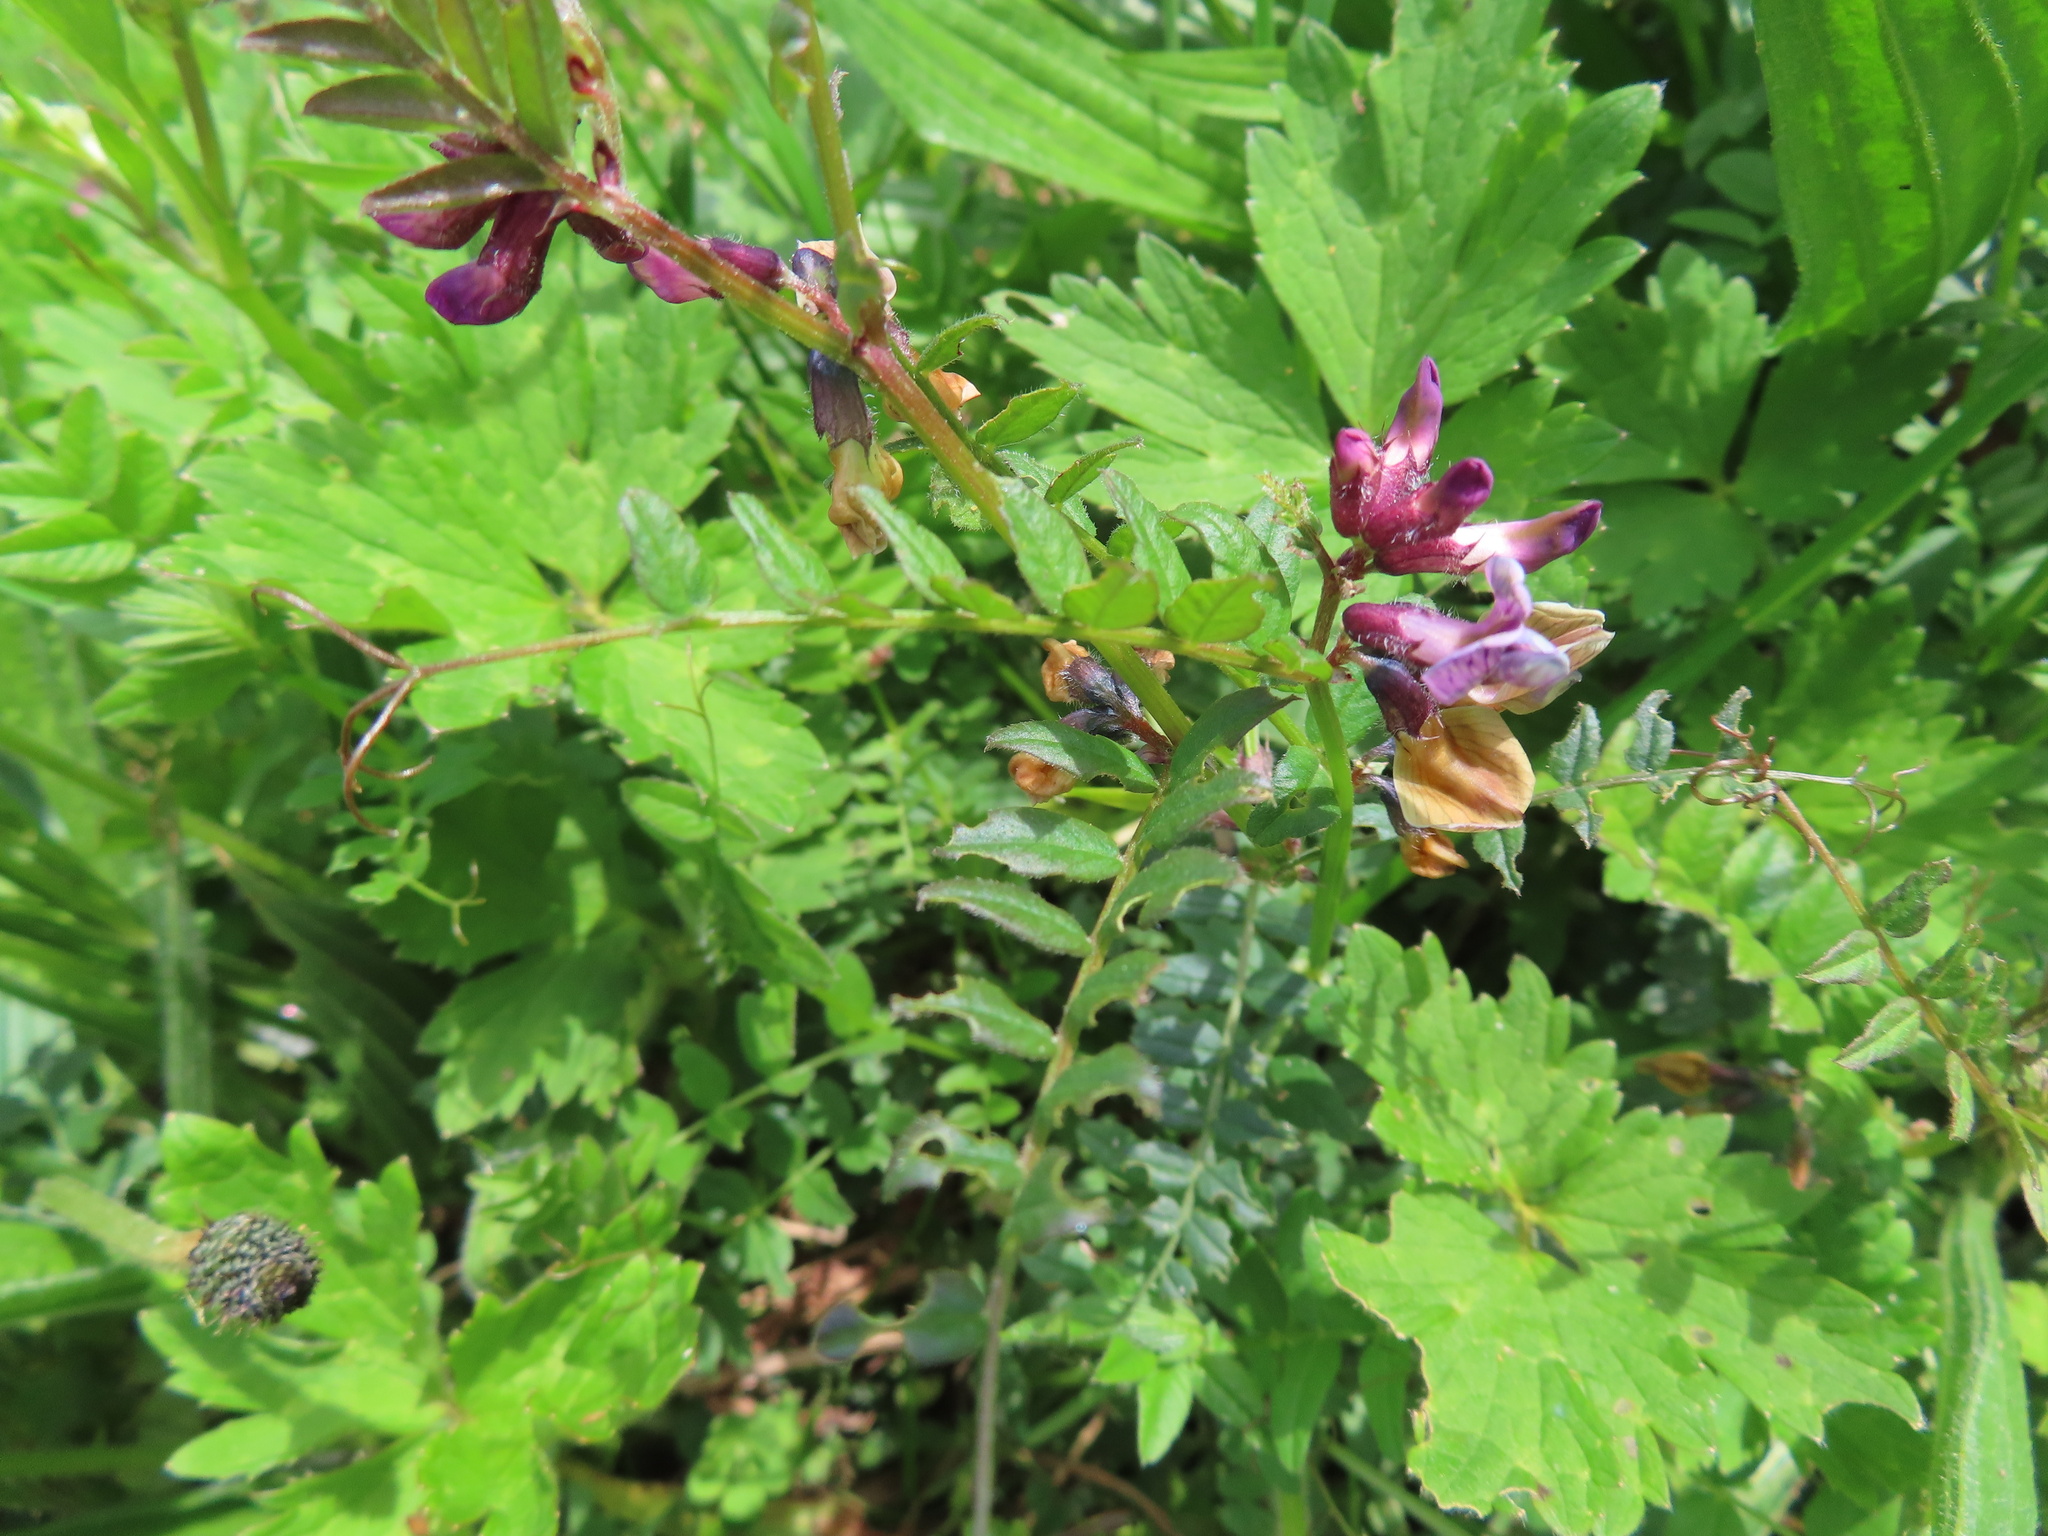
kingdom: Plantae
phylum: Tracheophyta
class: Magnoliopsida
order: Fabales
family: Fabaceae
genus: Vicia
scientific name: Vicia sepium
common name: Bush vetch
